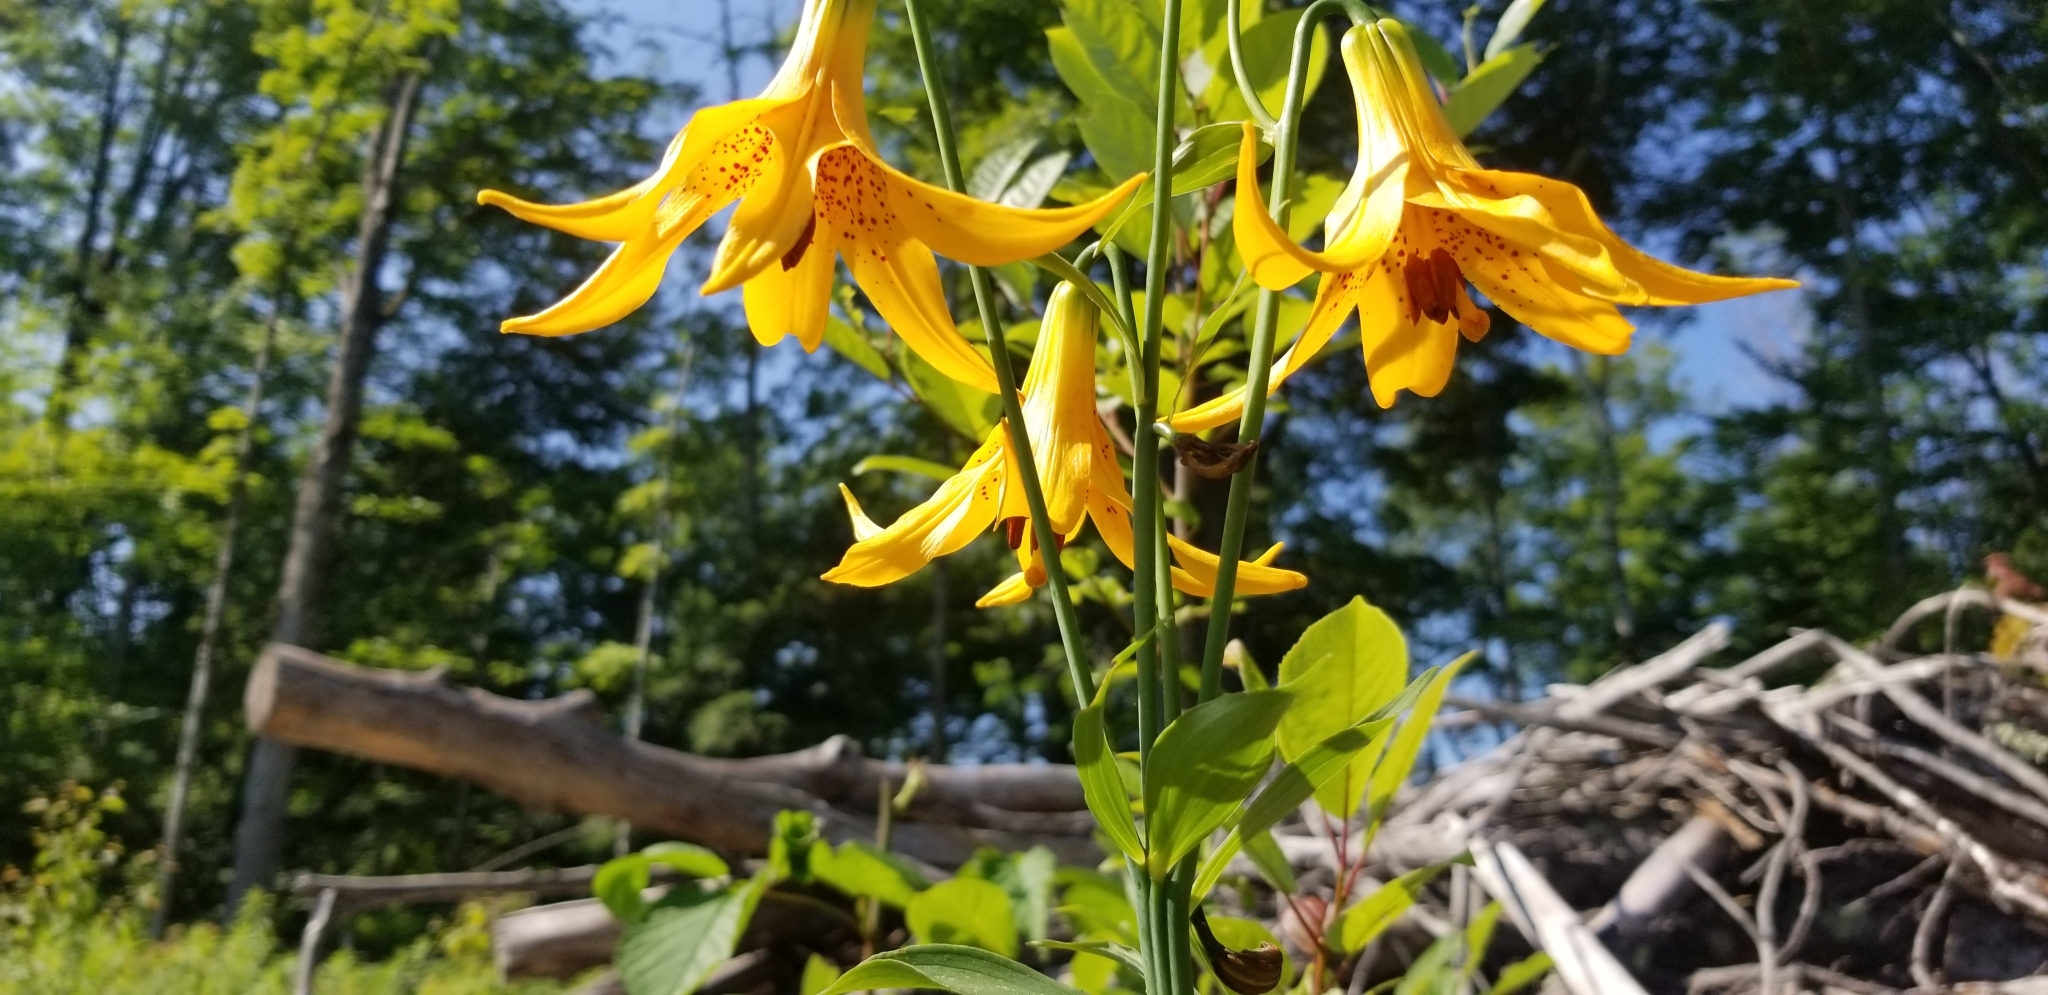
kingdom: Plantae
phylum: Tracheophyta
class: Liliopsida
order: Liliales
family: Liliaceae
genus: Lilium
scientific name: Lilium canadense
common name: Canada lily
